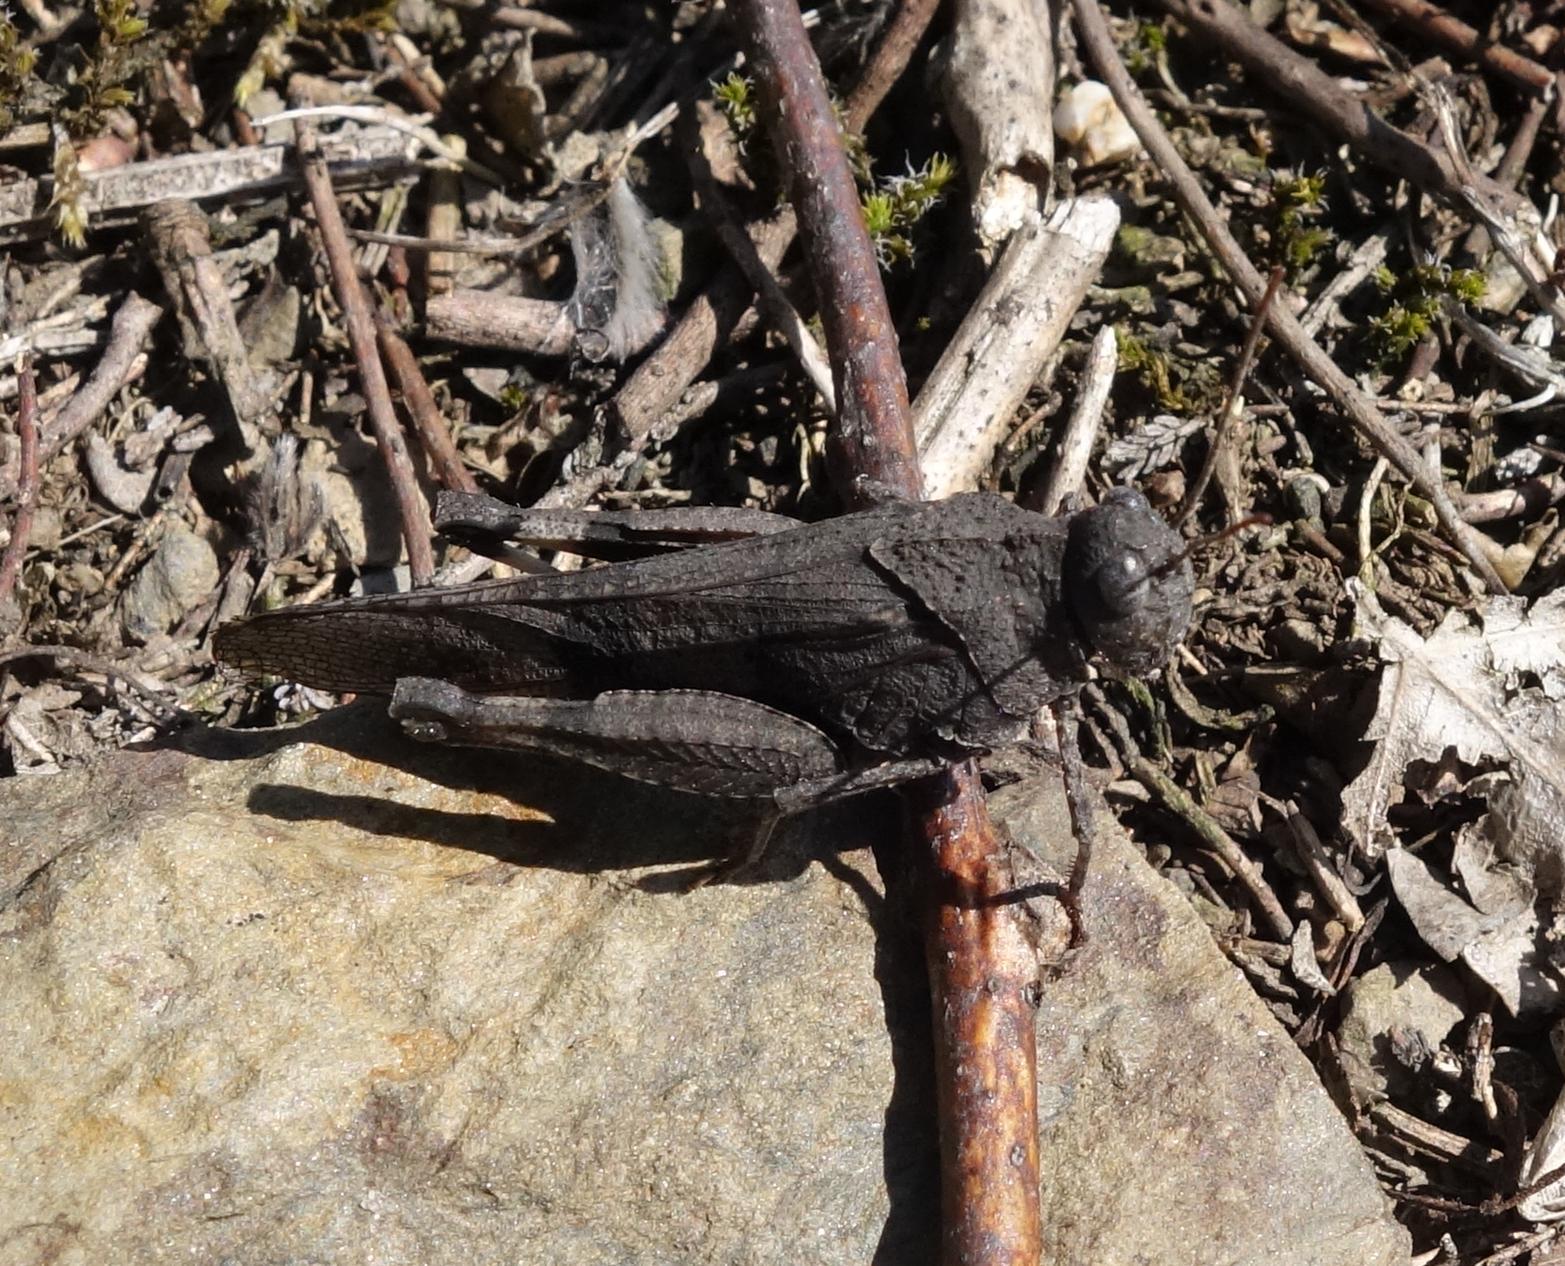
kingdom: Animalia
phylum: Arthropoda
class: Insecta
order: Orthoptera
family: Acrididae
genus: Oedipoda
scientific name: Oedipoda caerulescens
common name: Blue-winged grasshopper
